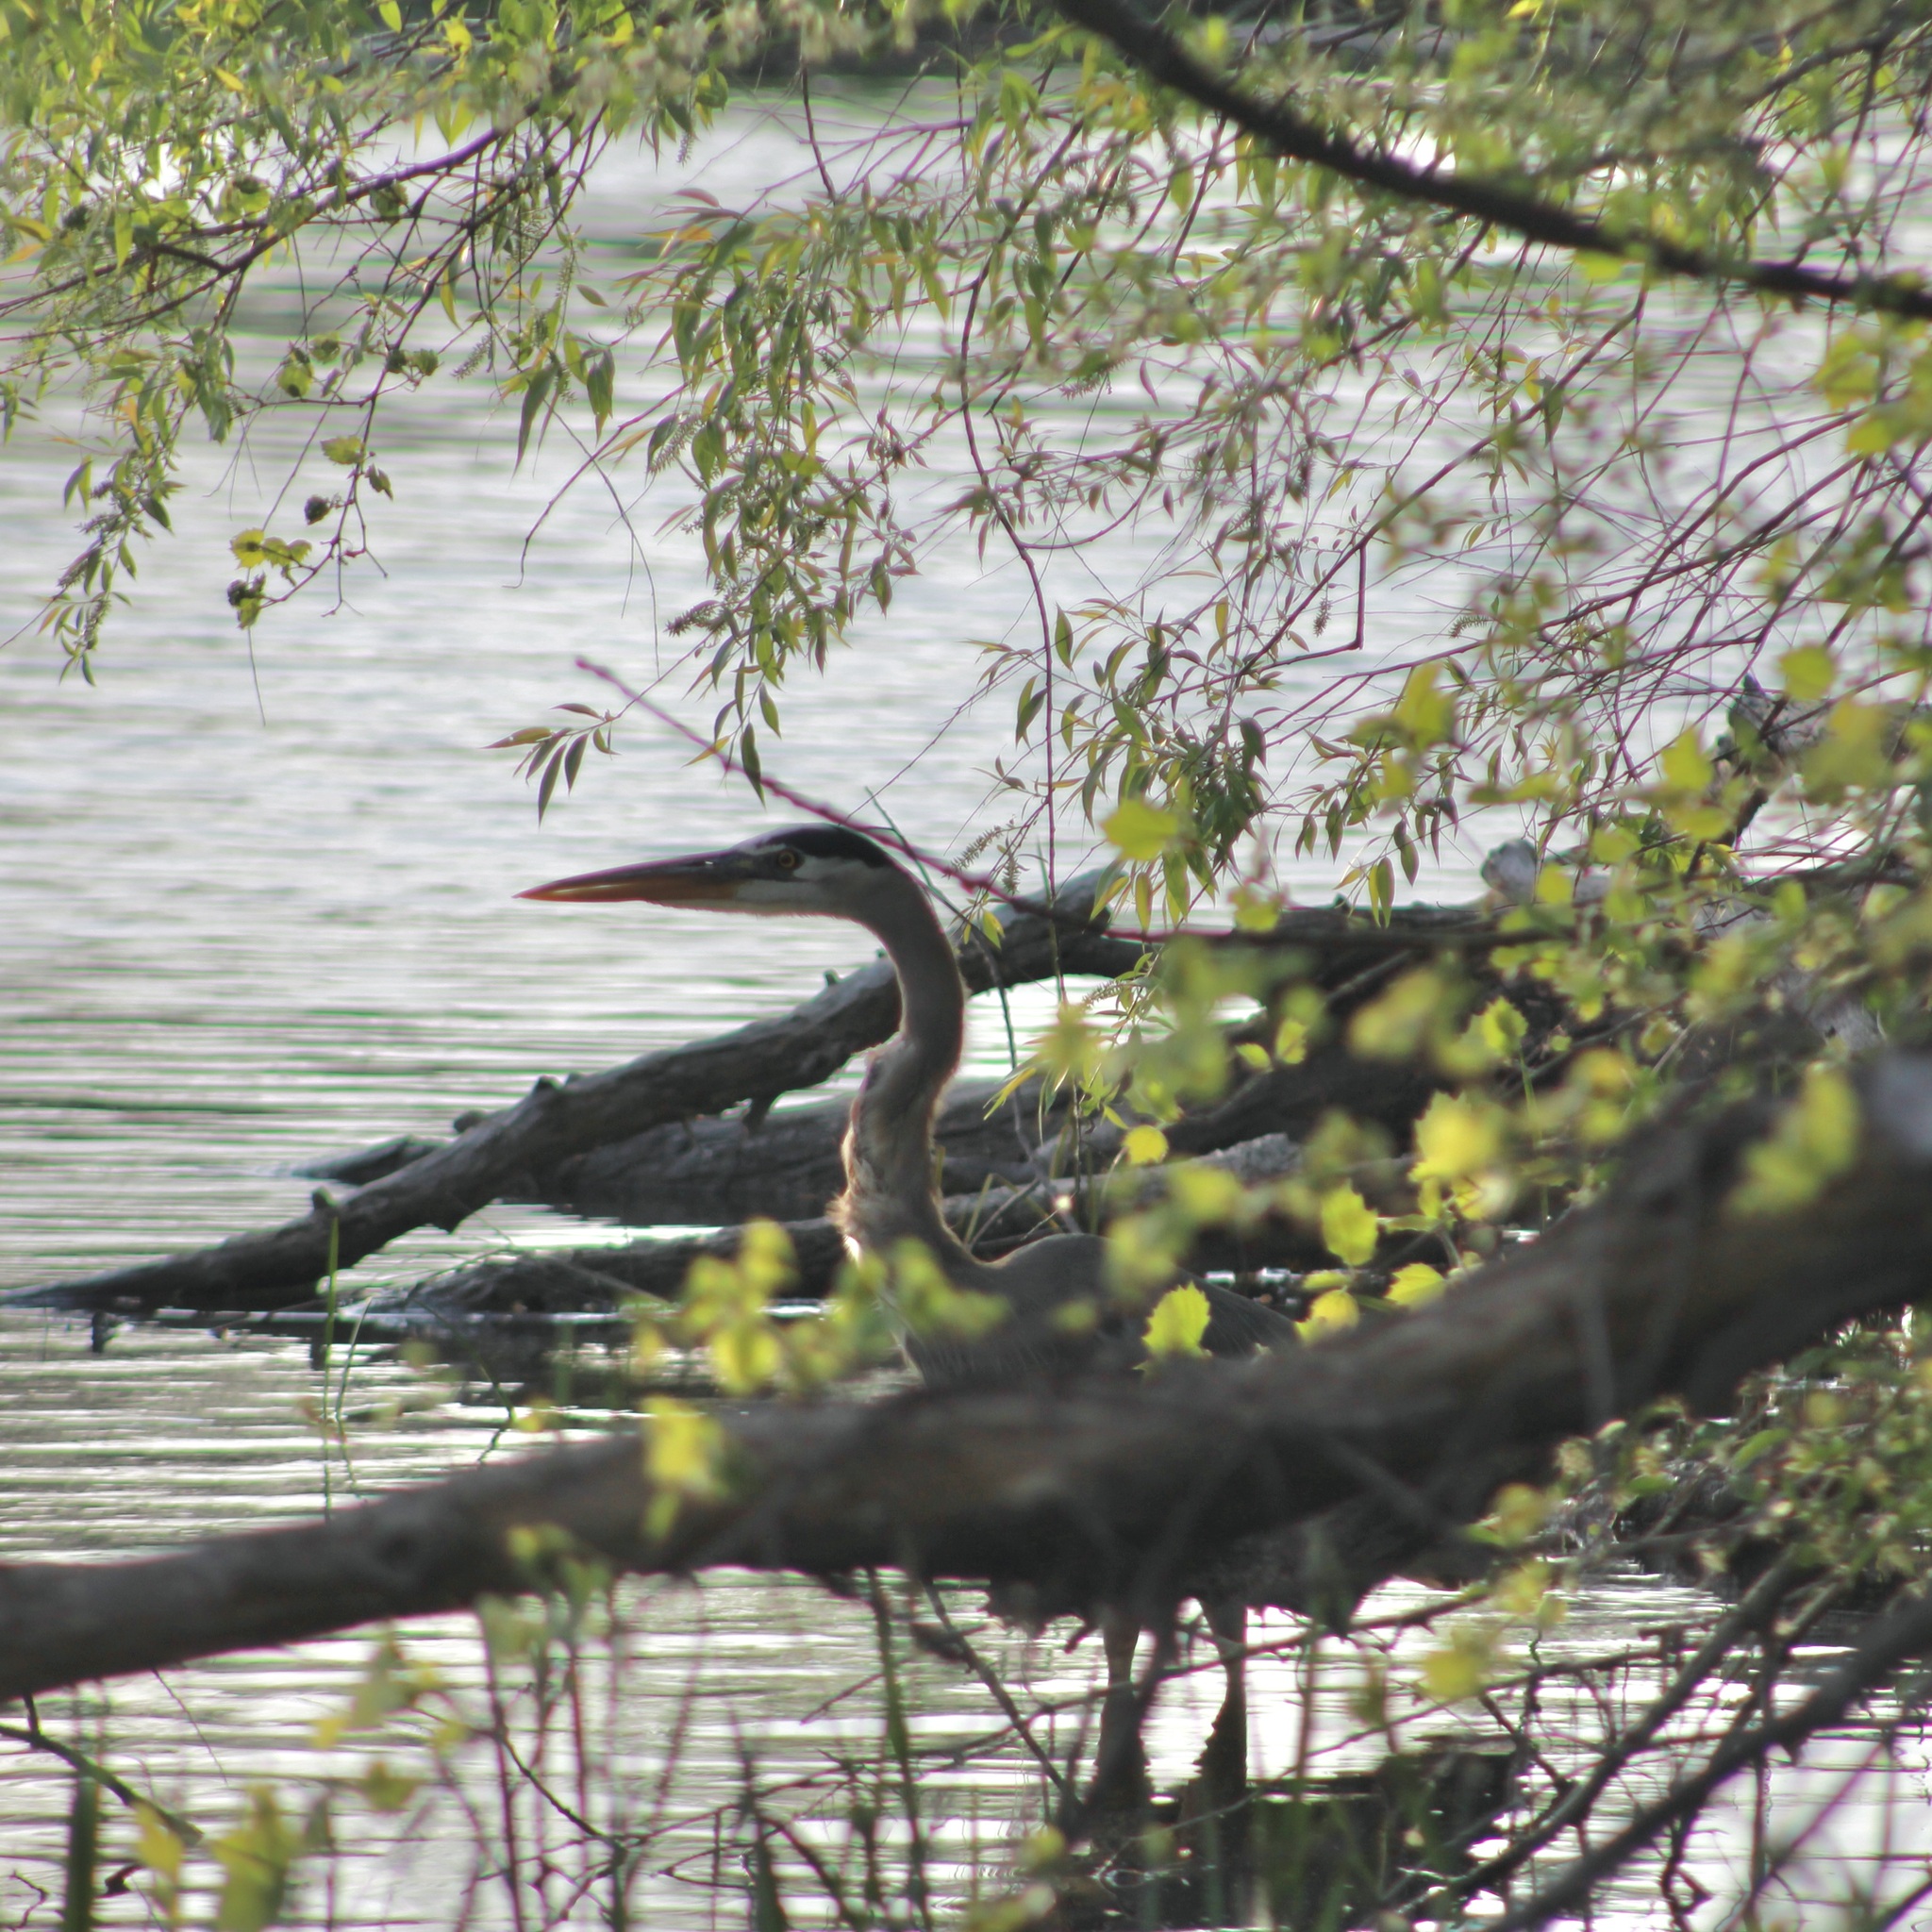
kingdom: Animalia
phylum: Chordata
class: Aves
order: Pelecaniformes
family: Ardeidae
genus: Ardea
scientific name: Ardea herodias
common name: Great blue heron
